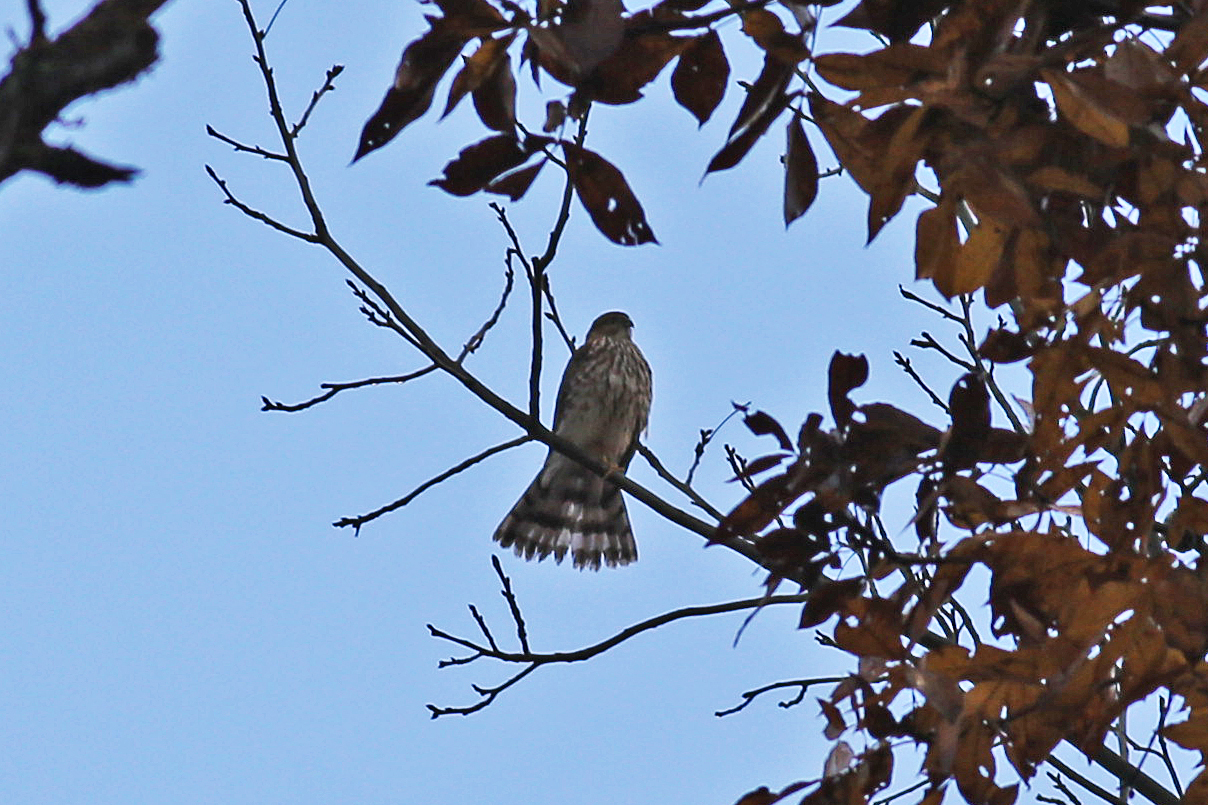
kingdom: Animalia
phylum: Chordata
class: Aves
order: Accipitriformes
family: Accipitridae
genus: Accipiter
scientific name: Accipiter striatus
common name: Sharp-shinned hawk
